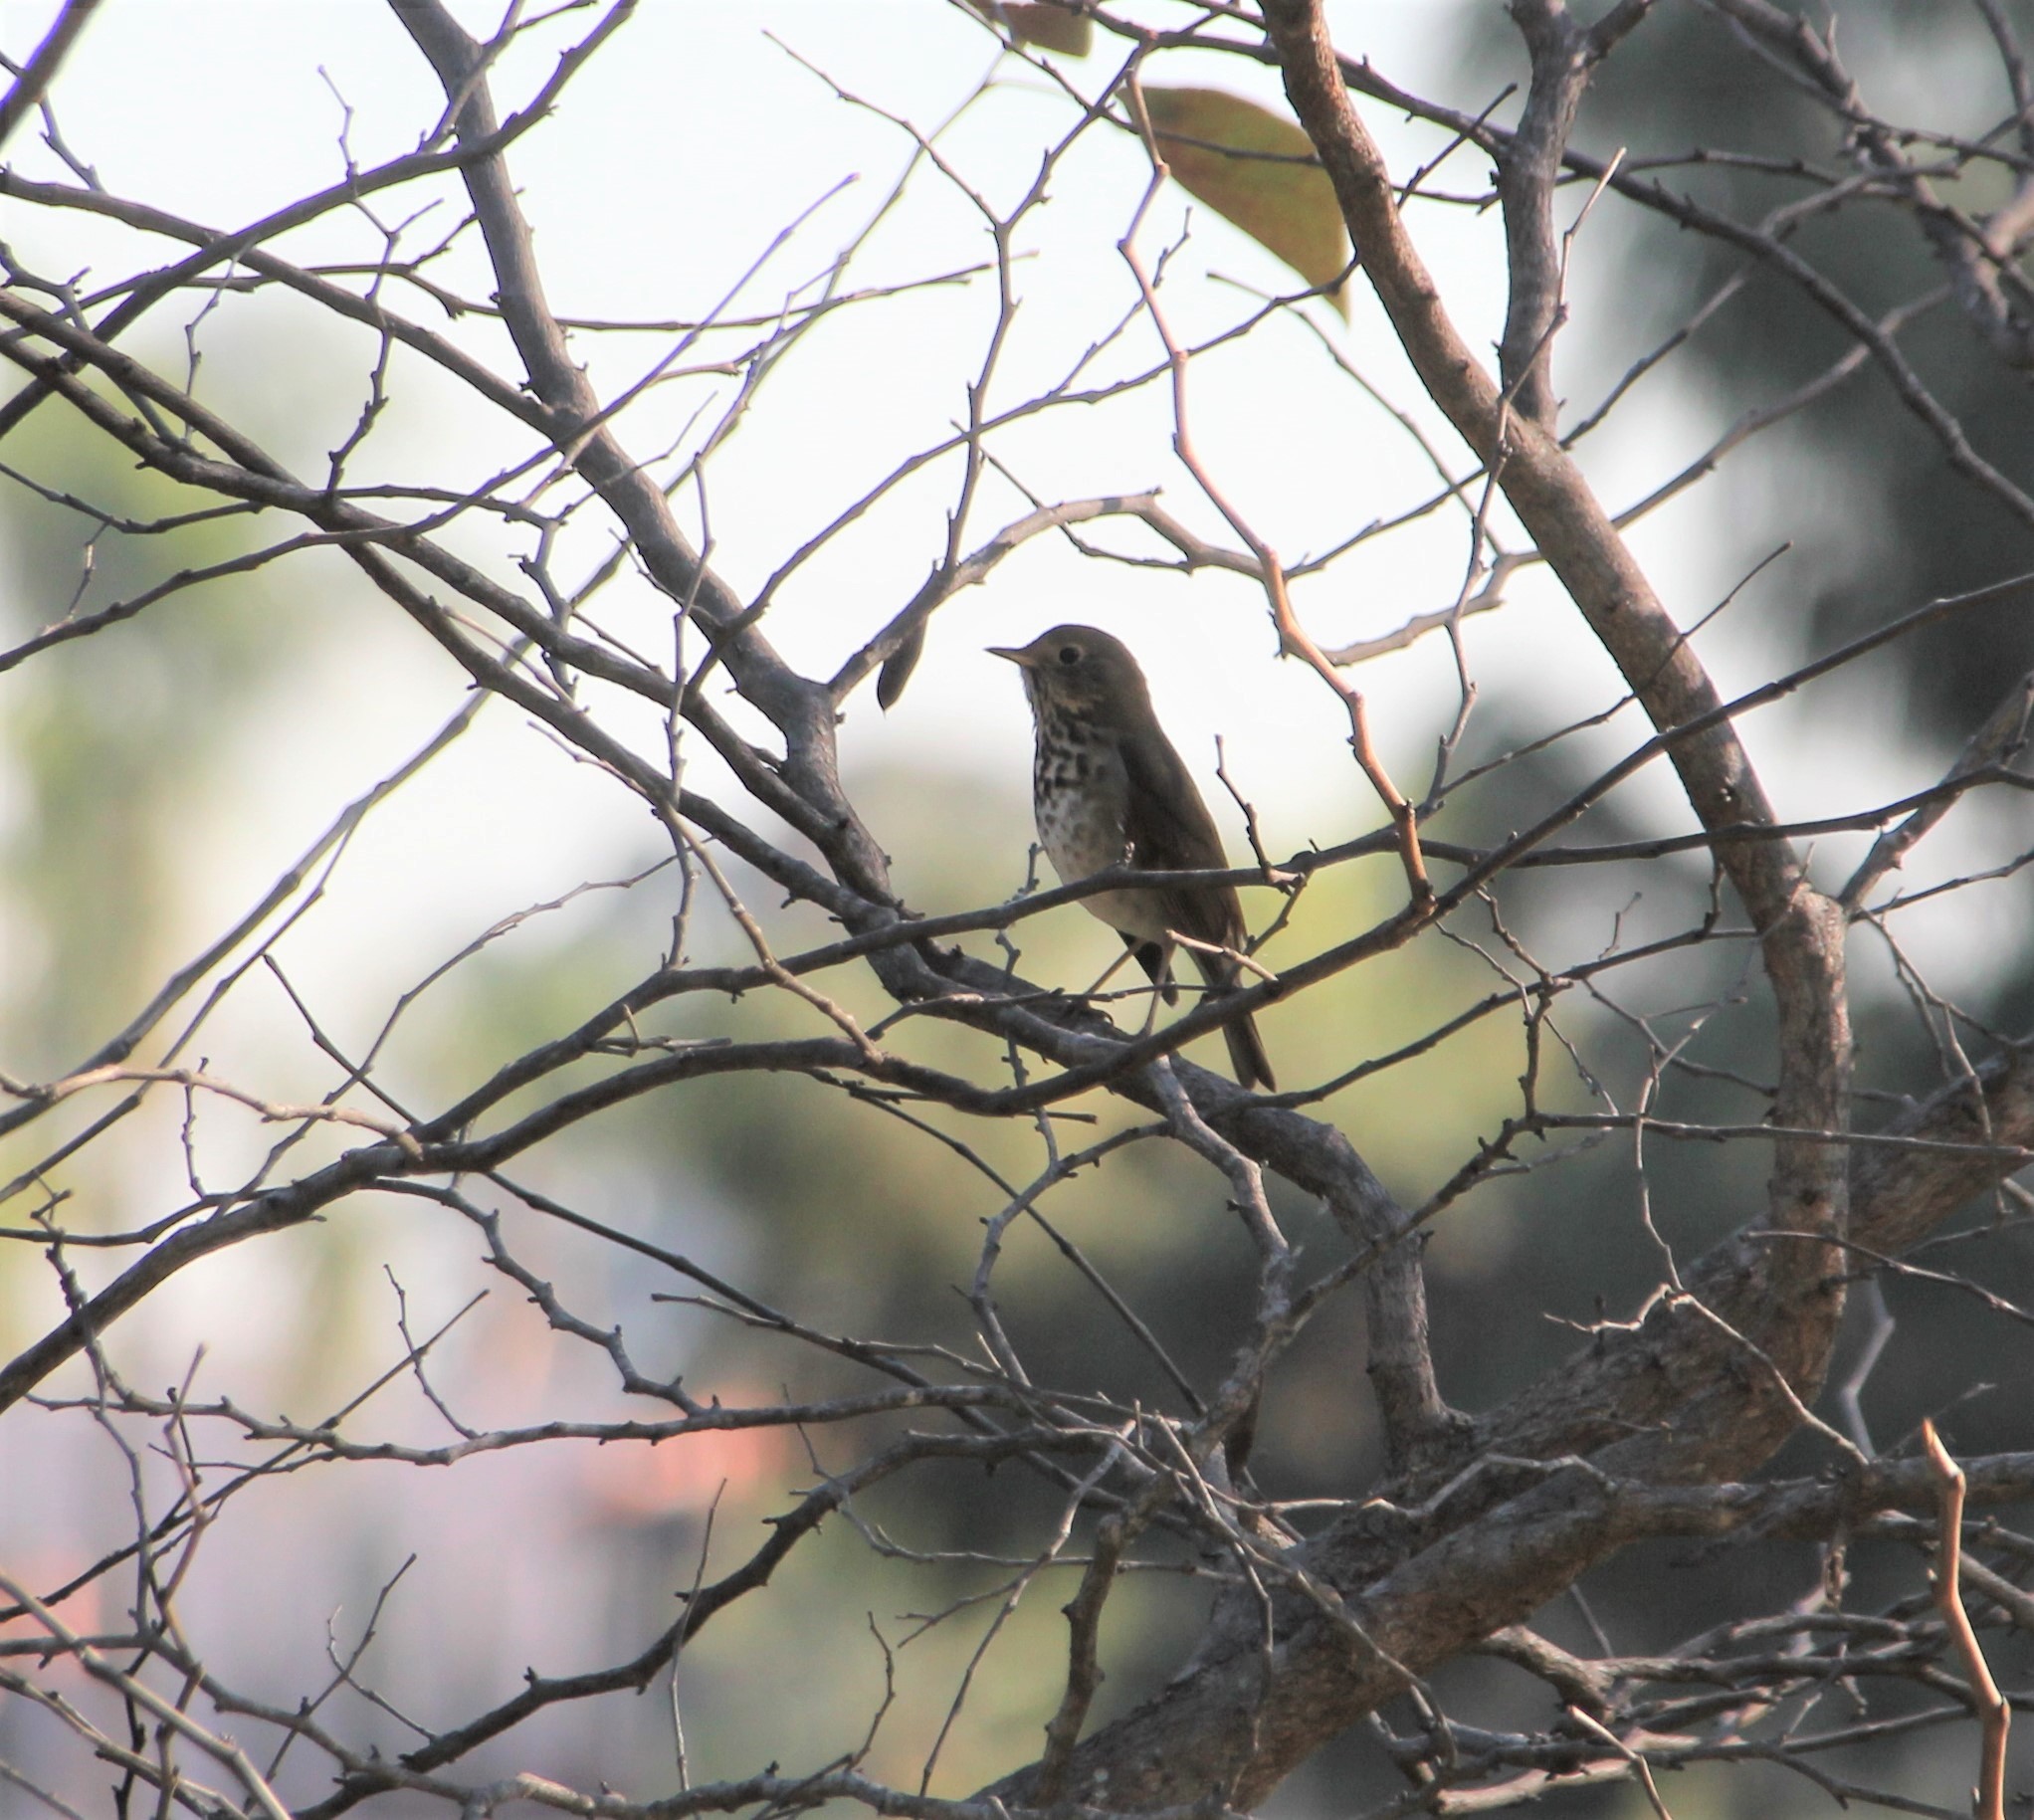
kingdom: Animalia
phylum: Chordata
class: Aves
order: Passeriformes
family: Turdidae
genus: Catharus
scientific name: Catharus guttatus
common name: Hermit thrush
